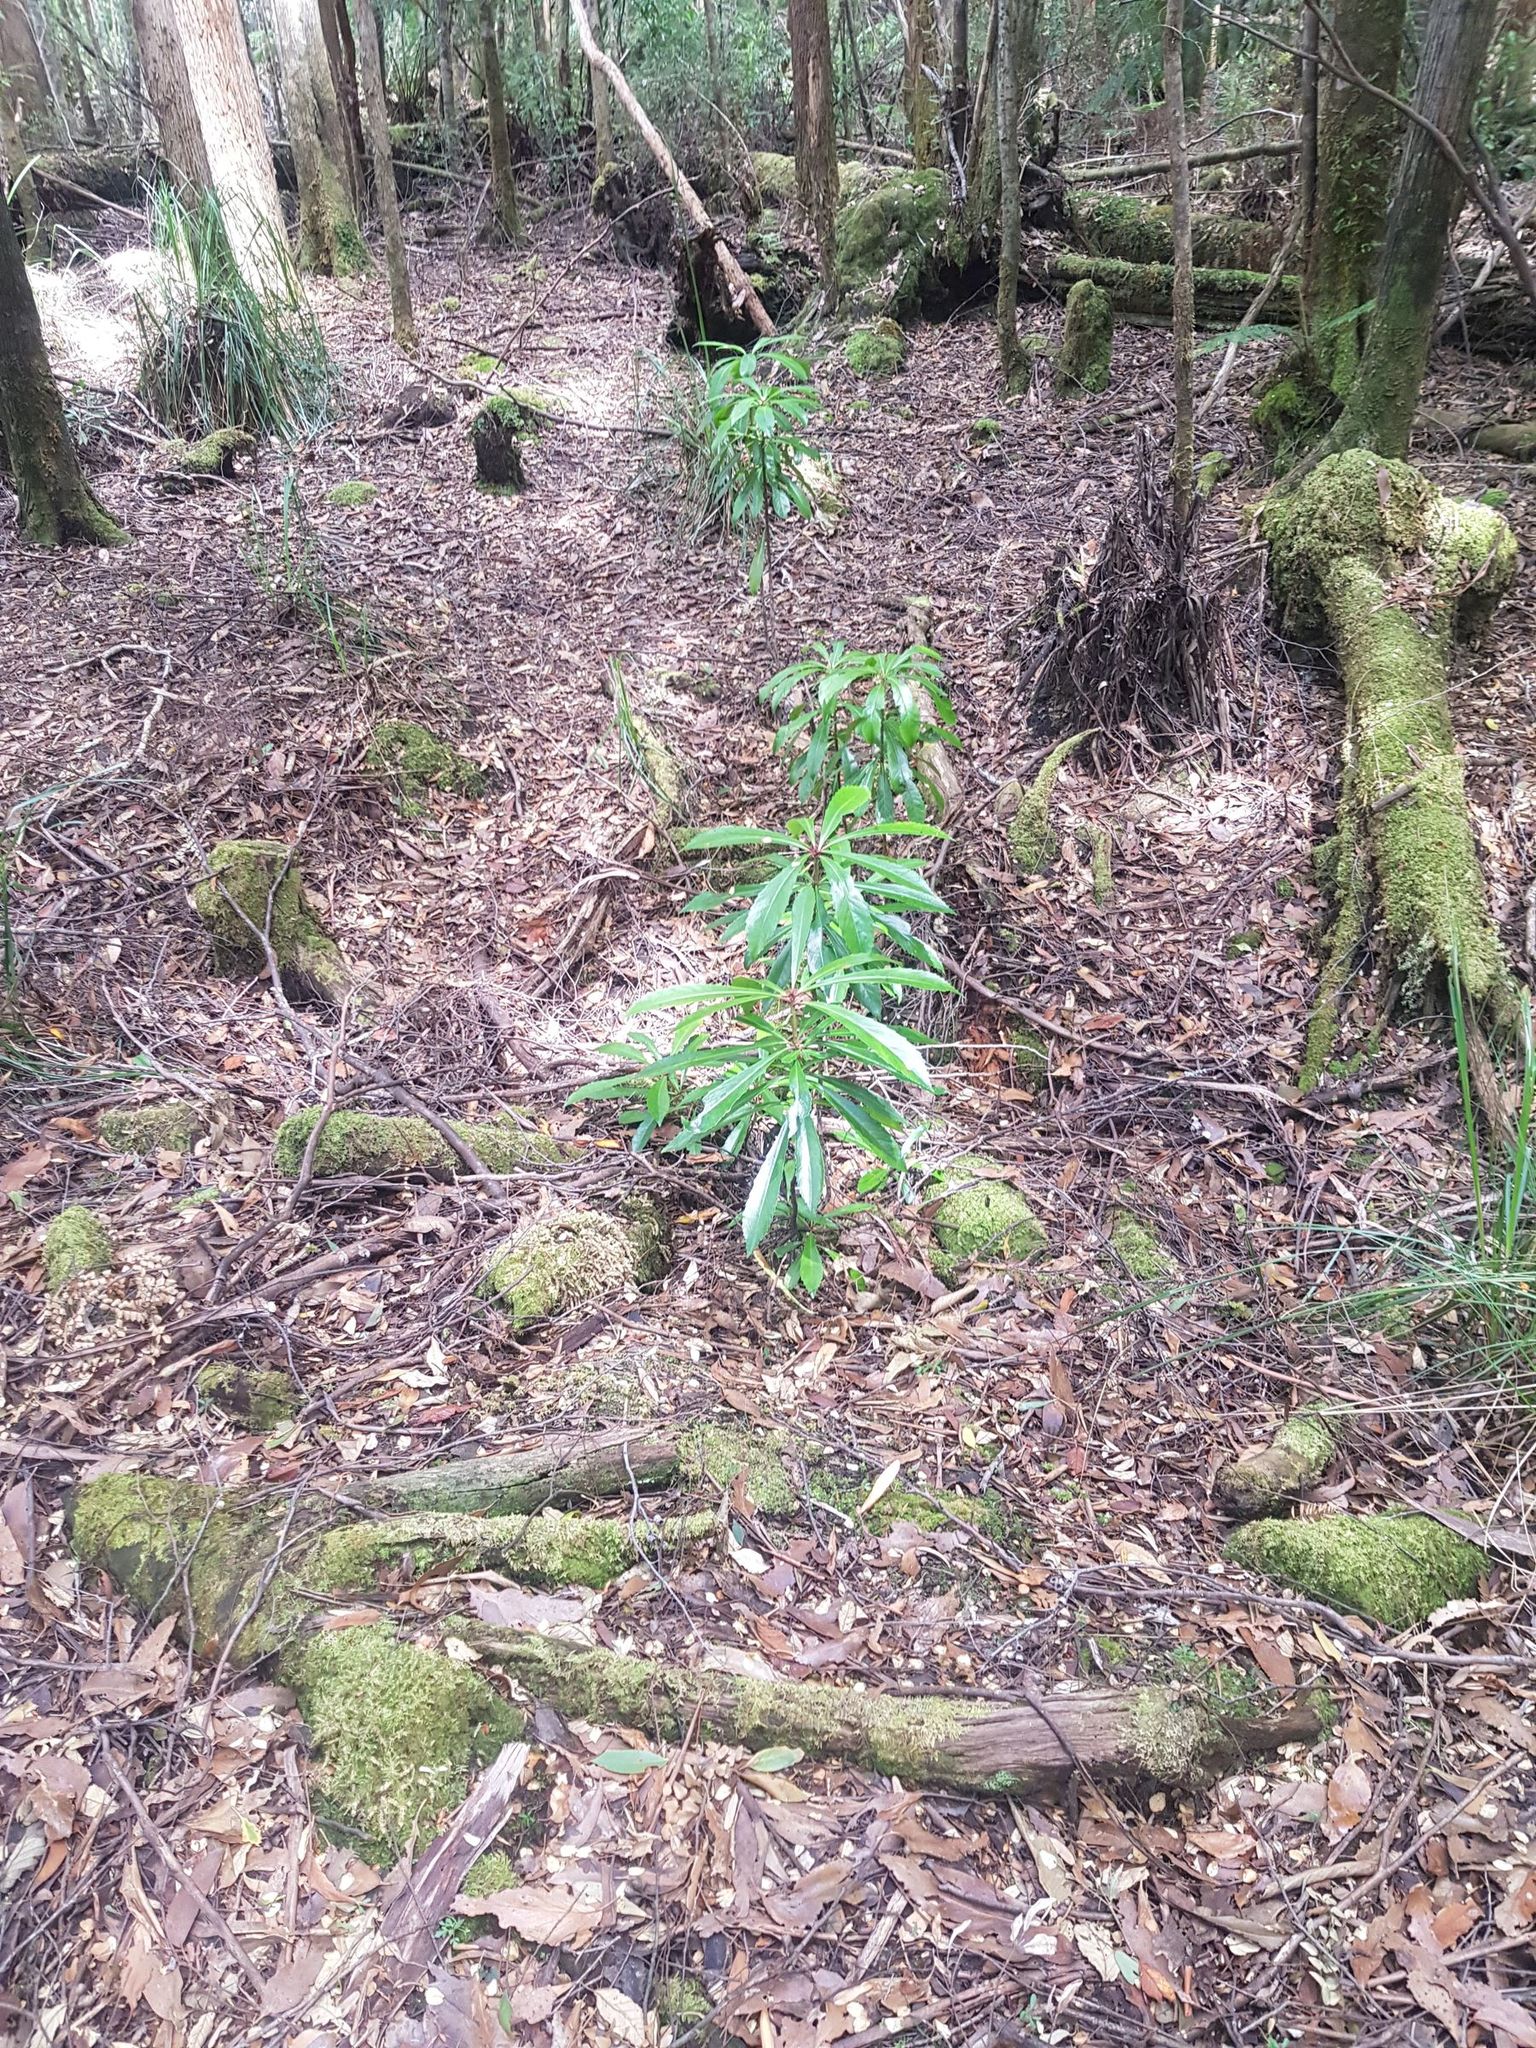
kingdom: Plantae
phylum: Tracheophyta
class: Magnoliopsida
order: Escalloniales
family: Escalloniaceae
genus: Anopterus
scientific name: Anopterus glandulosus
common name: Tasmanian-laurel
